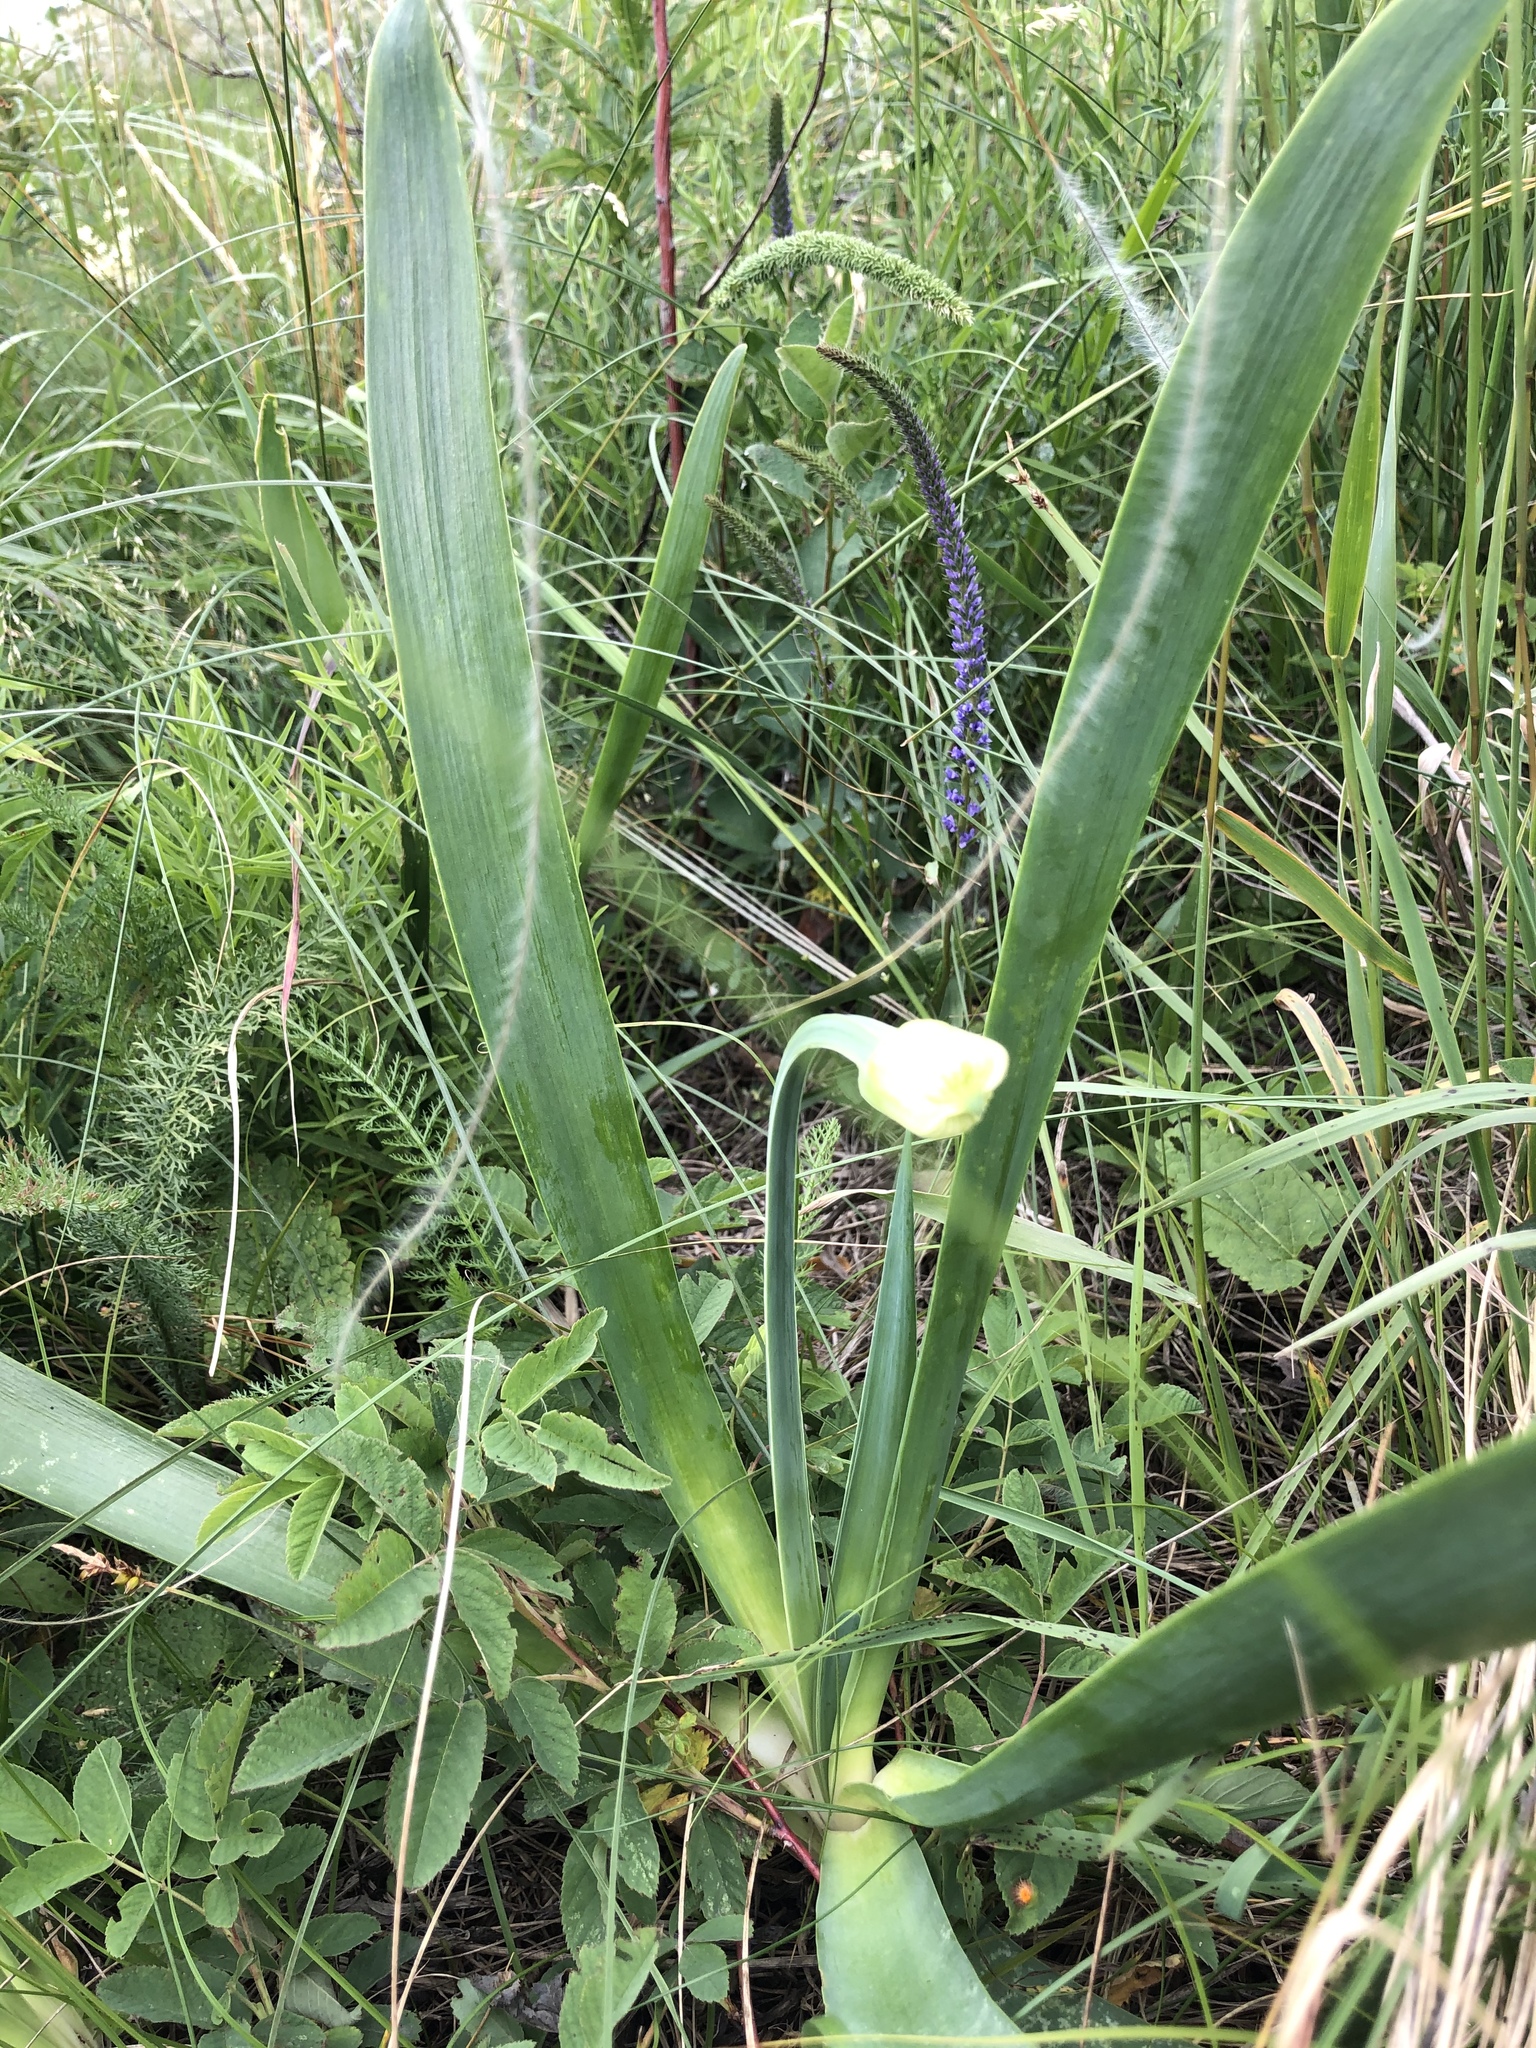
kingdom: Plantae
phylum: Tracheophyta
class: Liliopsida
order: Asparagales
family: Amaryllidaceae
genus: Allium
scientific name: Allium nutans
